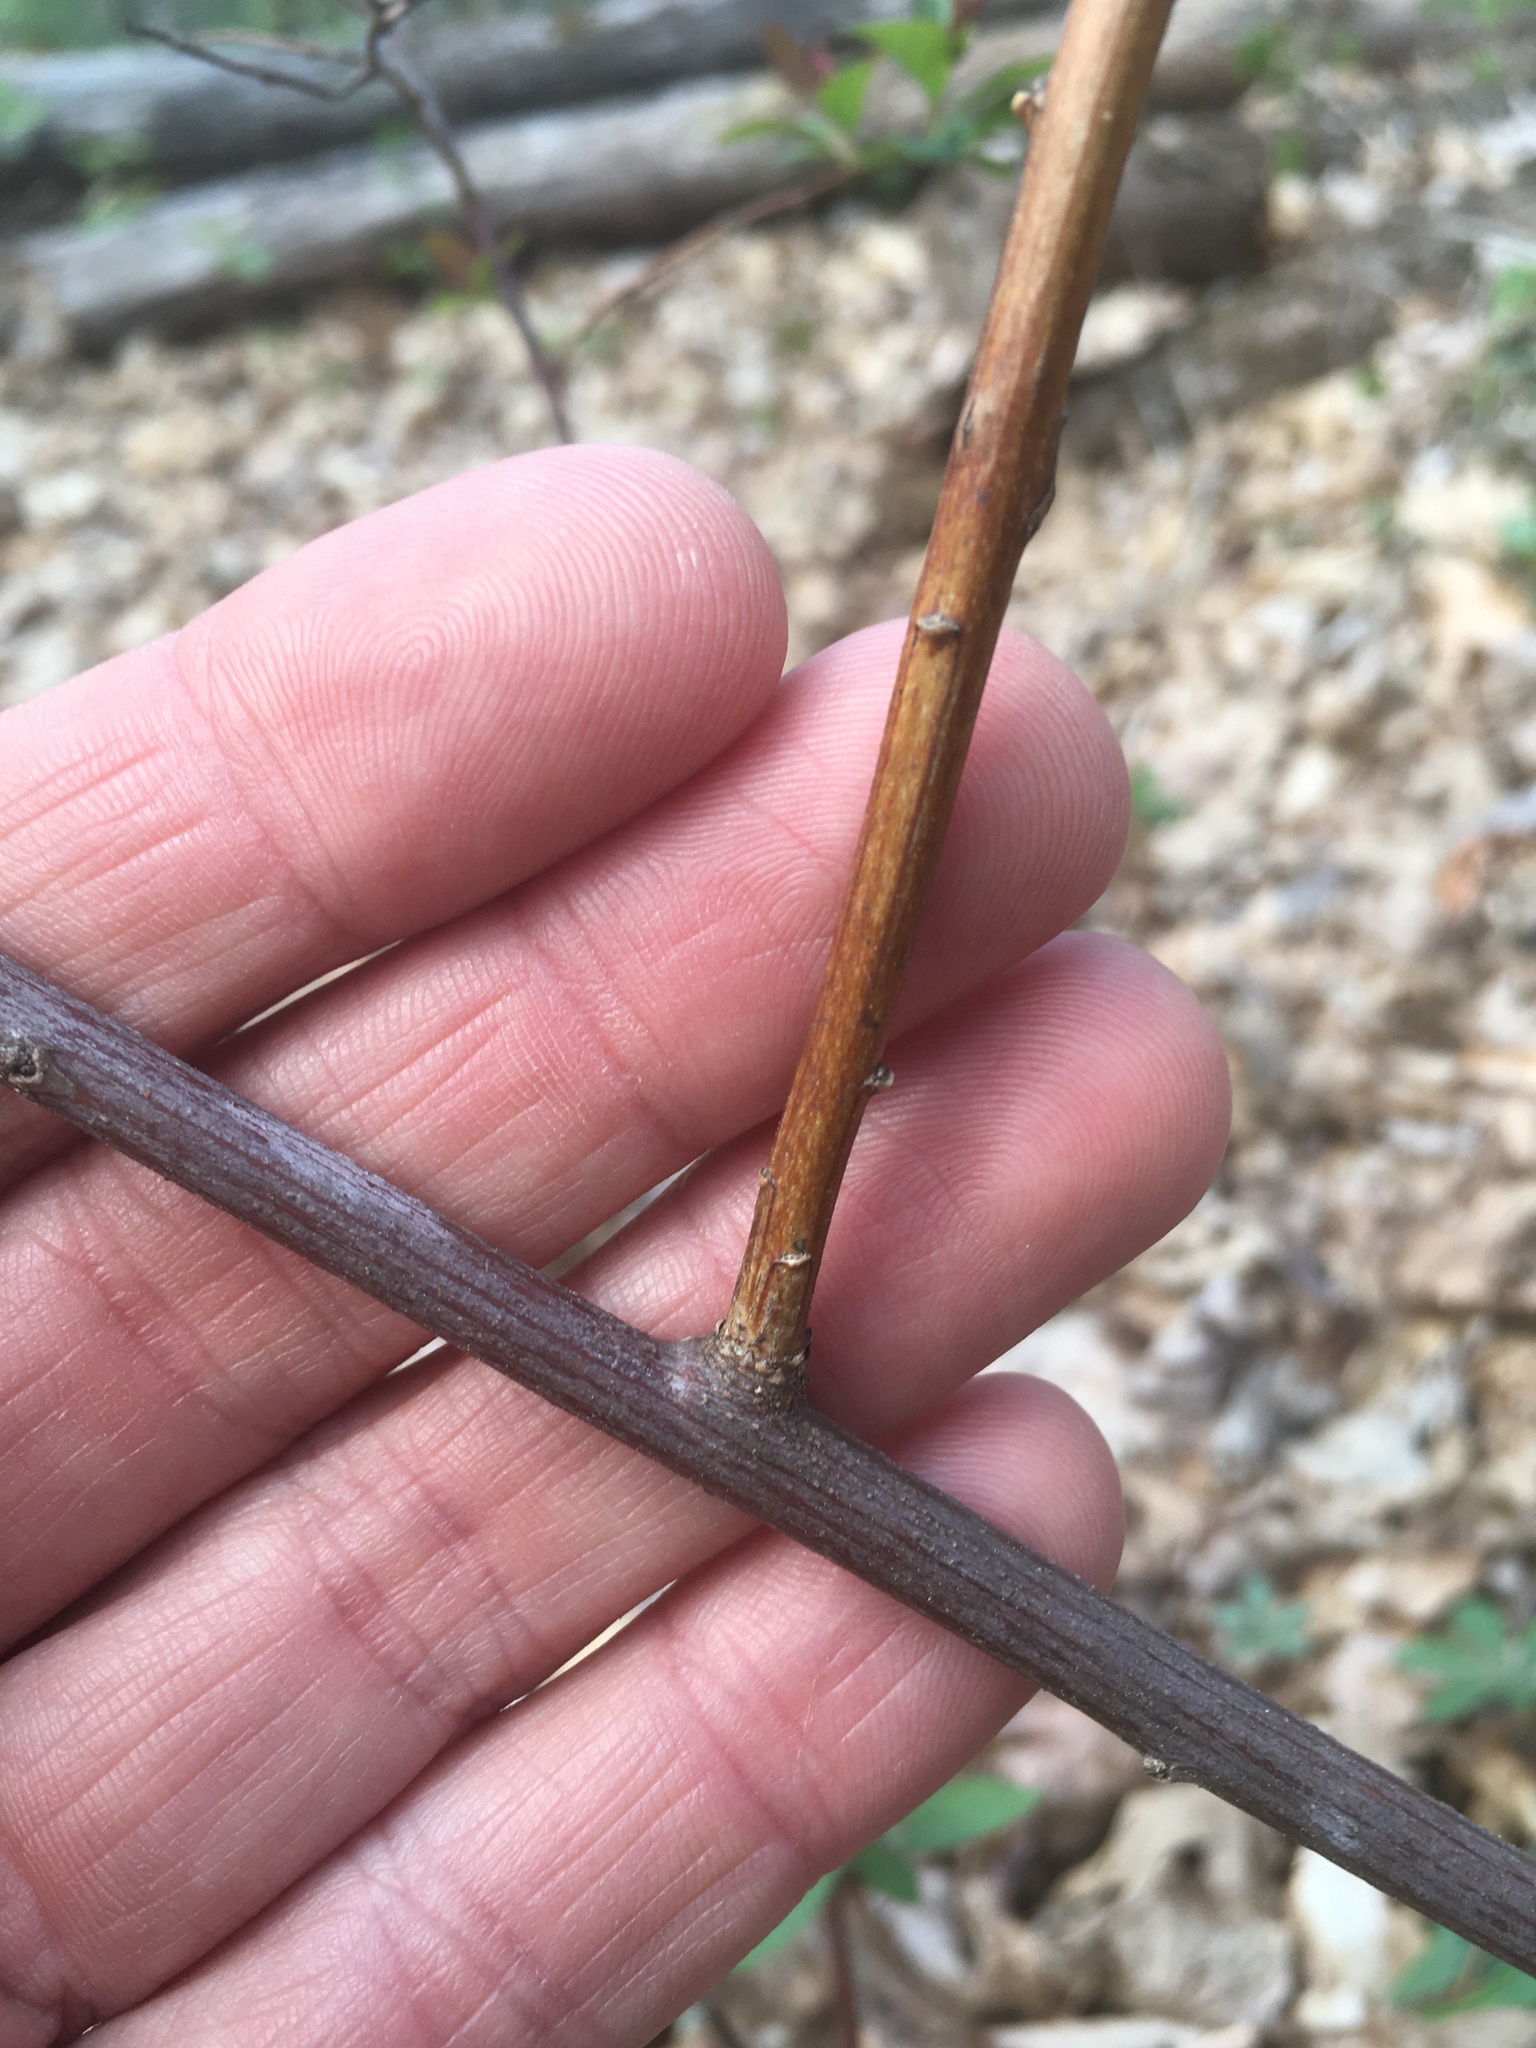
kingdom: Plantae
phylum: Tracheophyta
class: Magnoliopsida
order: Rosales
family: Rosaceae
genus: Spiraea
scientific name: Spiraea japonica
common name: Japanese spiraea
